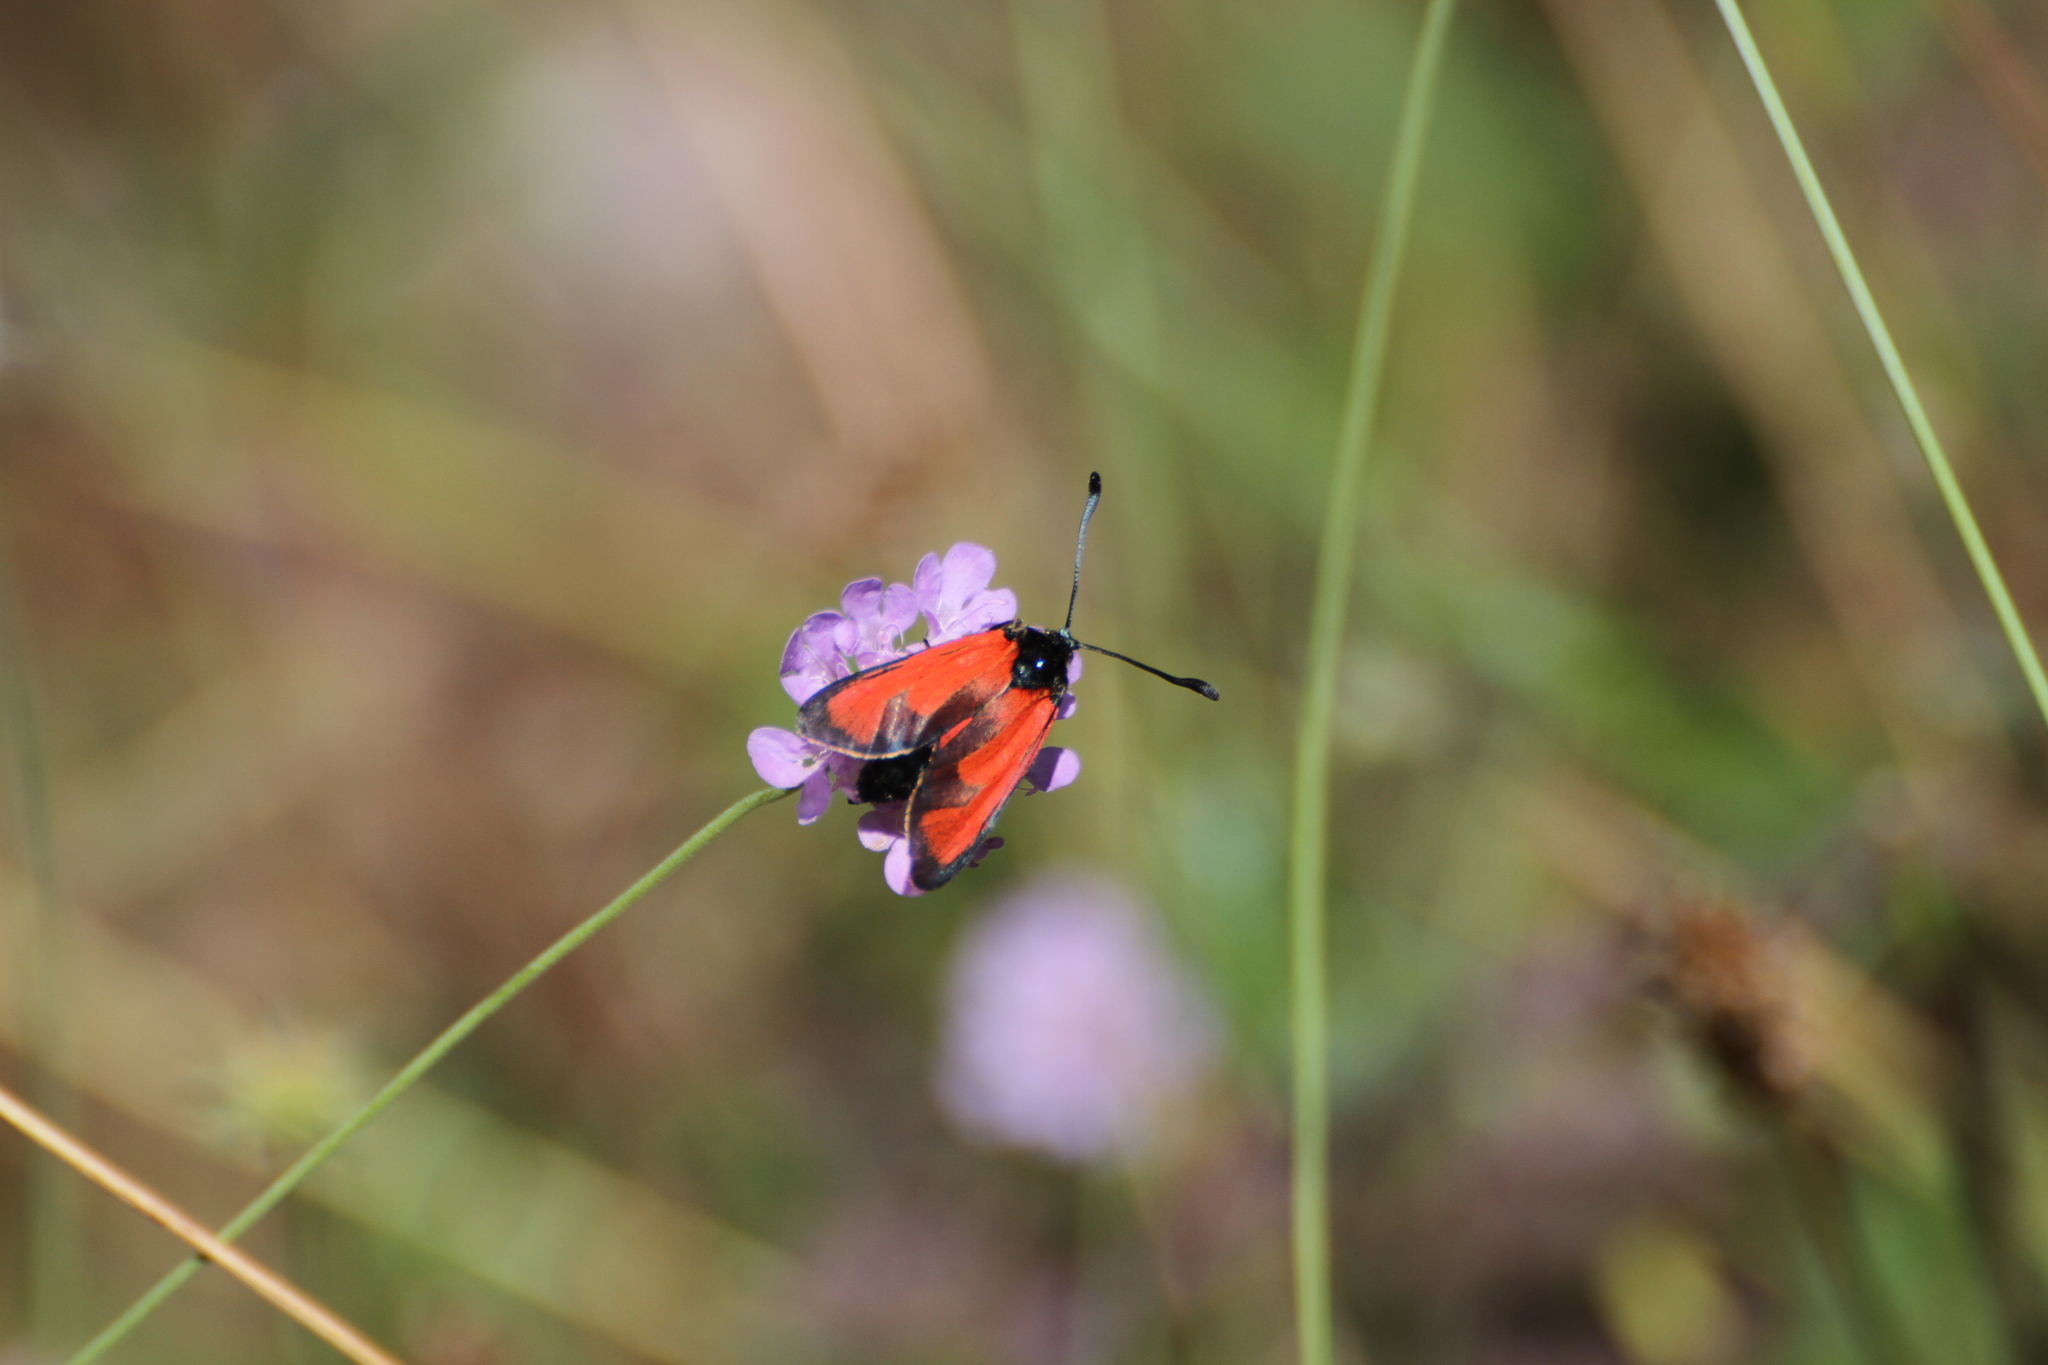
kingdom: Animalia
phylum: Arthropoda
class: Insecta
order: Lepidoptera
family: Zygaenidae
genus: Zygaena
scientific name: Zygaena erythrus
